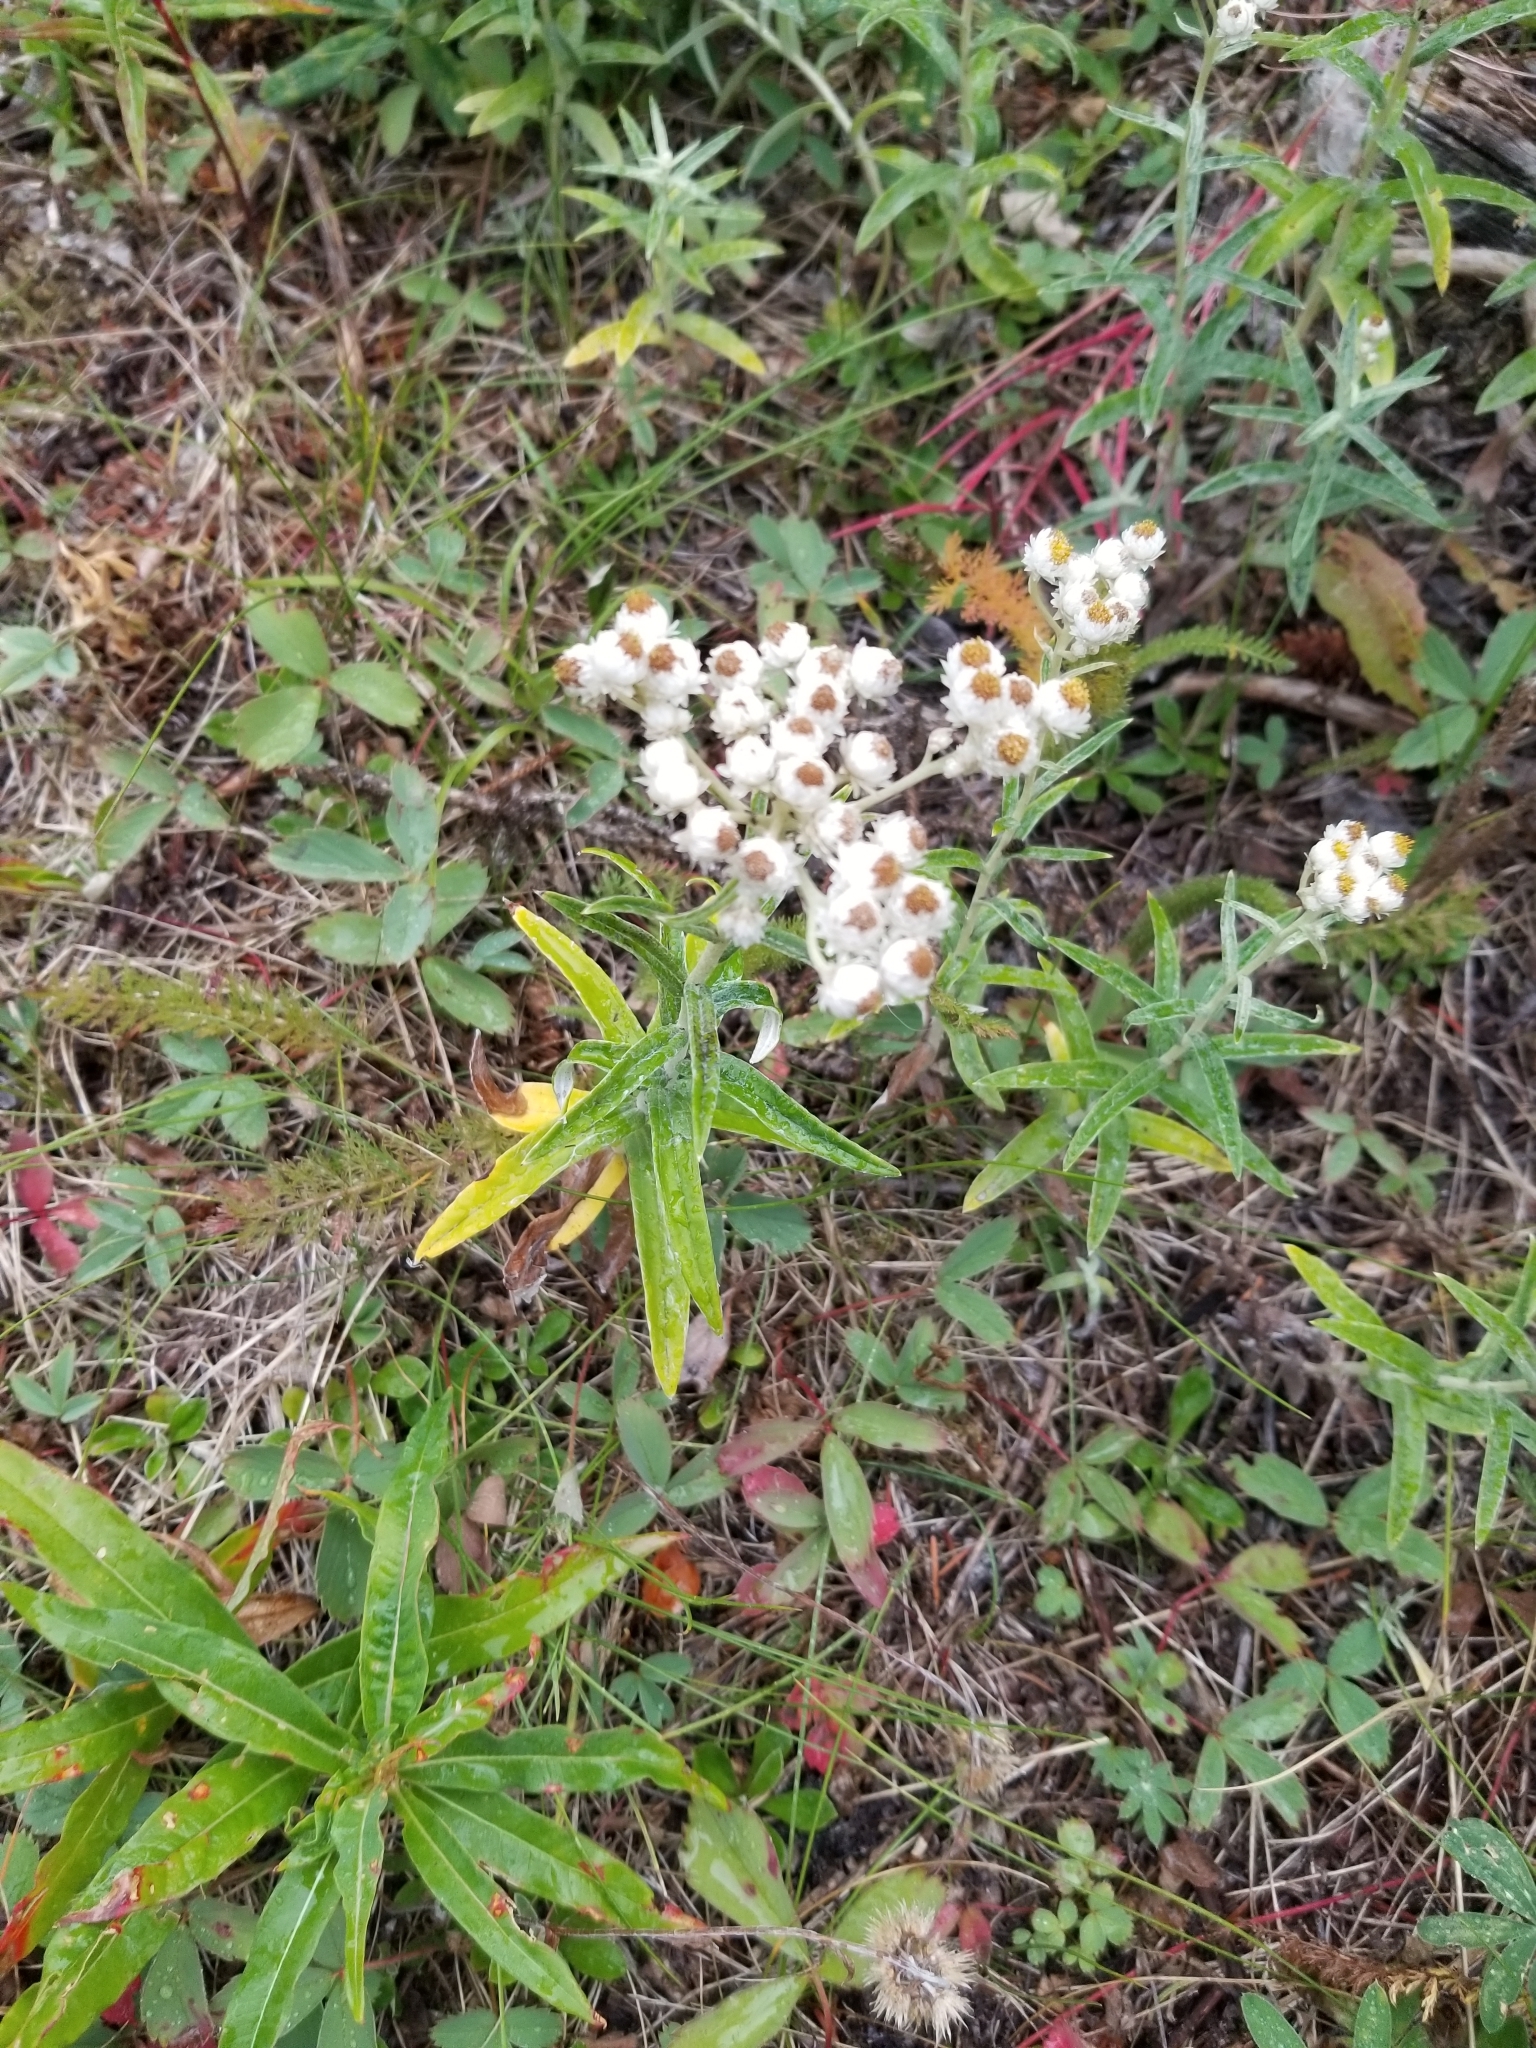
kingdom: Plantae
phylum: Tracheophyta
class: Magnoliopsida
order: Asterales
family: Asteraceae
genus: Anaphalis
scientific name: Anaphalis margaritacea
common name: Pearly everlasting
